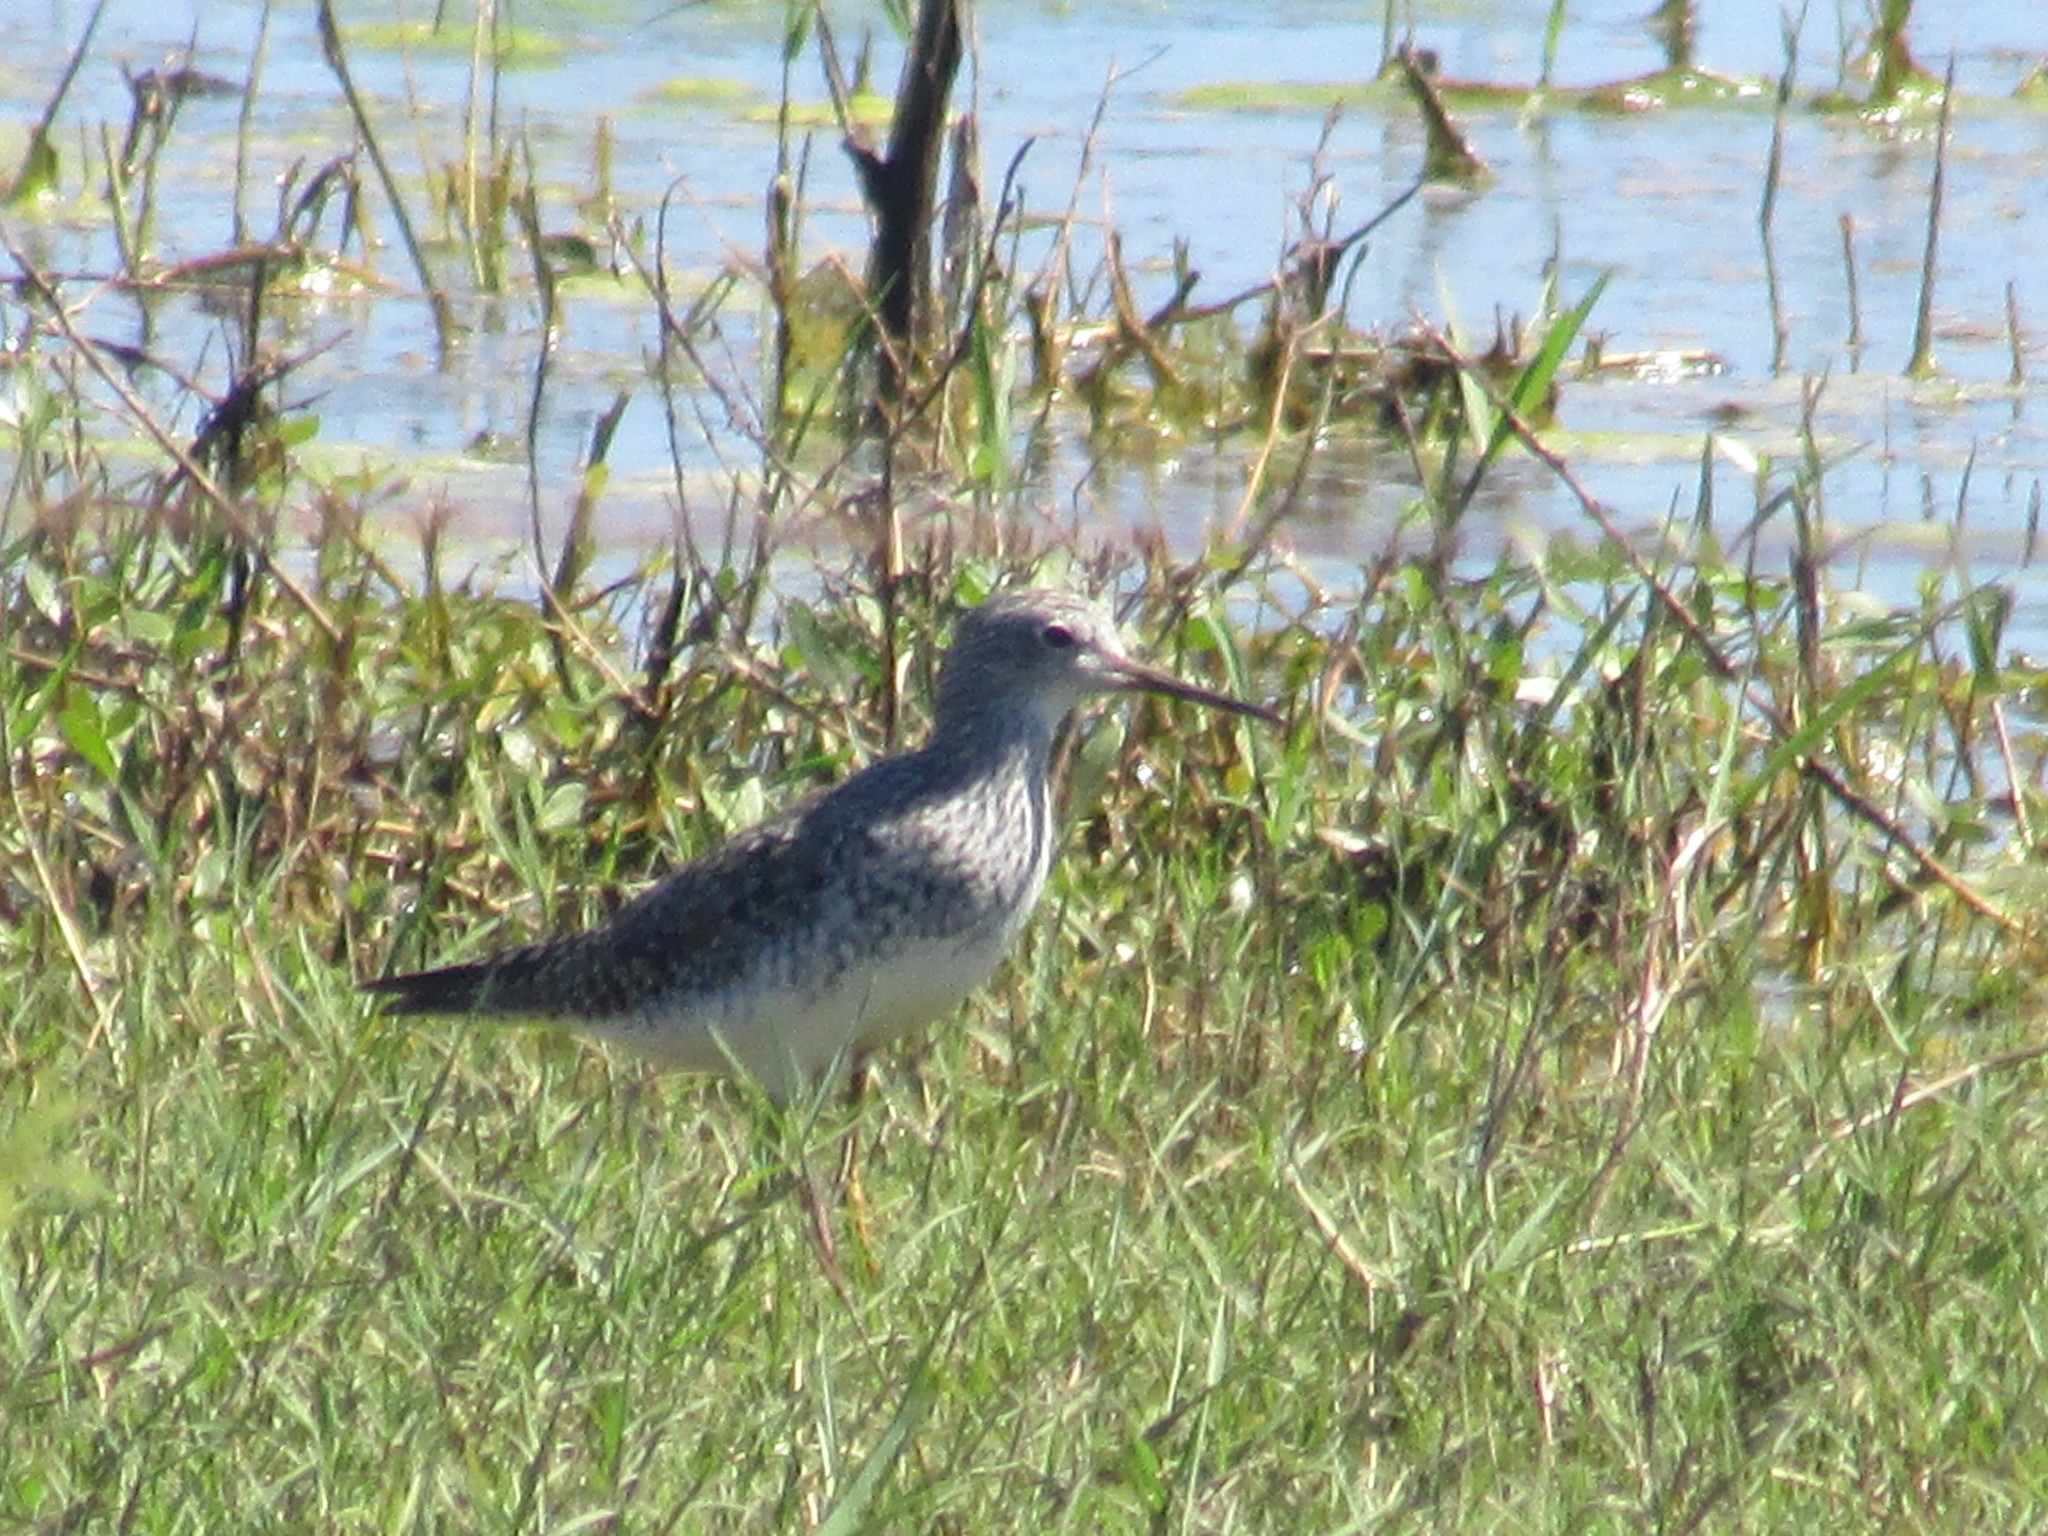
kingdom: Animalia
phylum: Chordata
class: Aves
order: Charadriiformes
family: Scolopacidae
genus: Tringa
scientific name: Tringa flavipes
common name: Lesser yellowlegs
